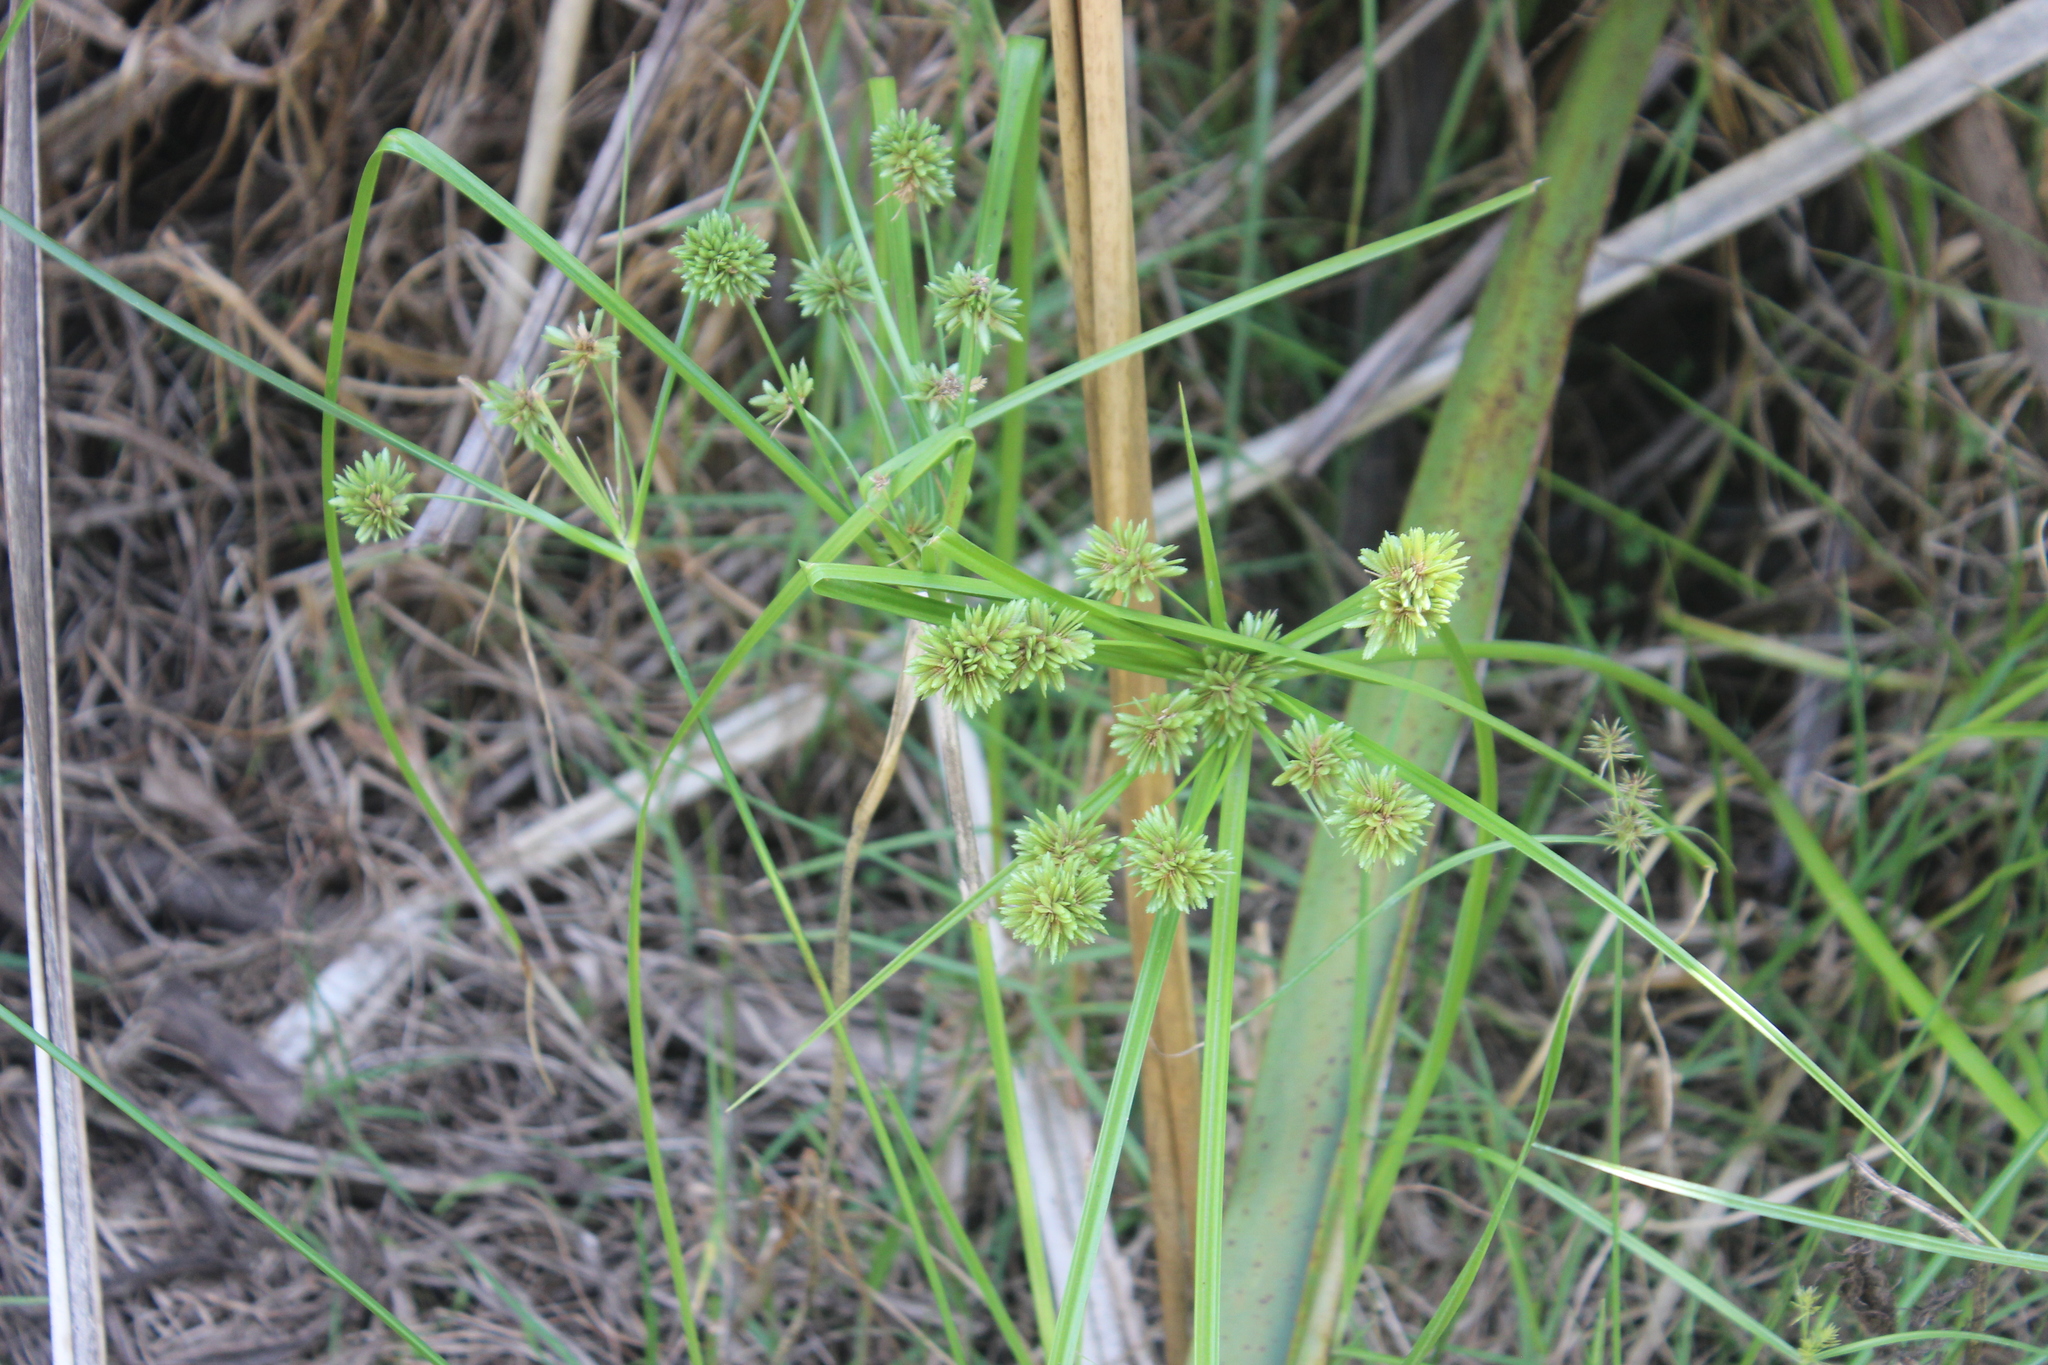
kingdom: Plantae
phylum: Tracheophyta
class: Liliopsida
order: Poales
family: Cyperaceae
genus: Cyperus
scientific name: Cyperus eragrostis
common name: Tall flatsedge
